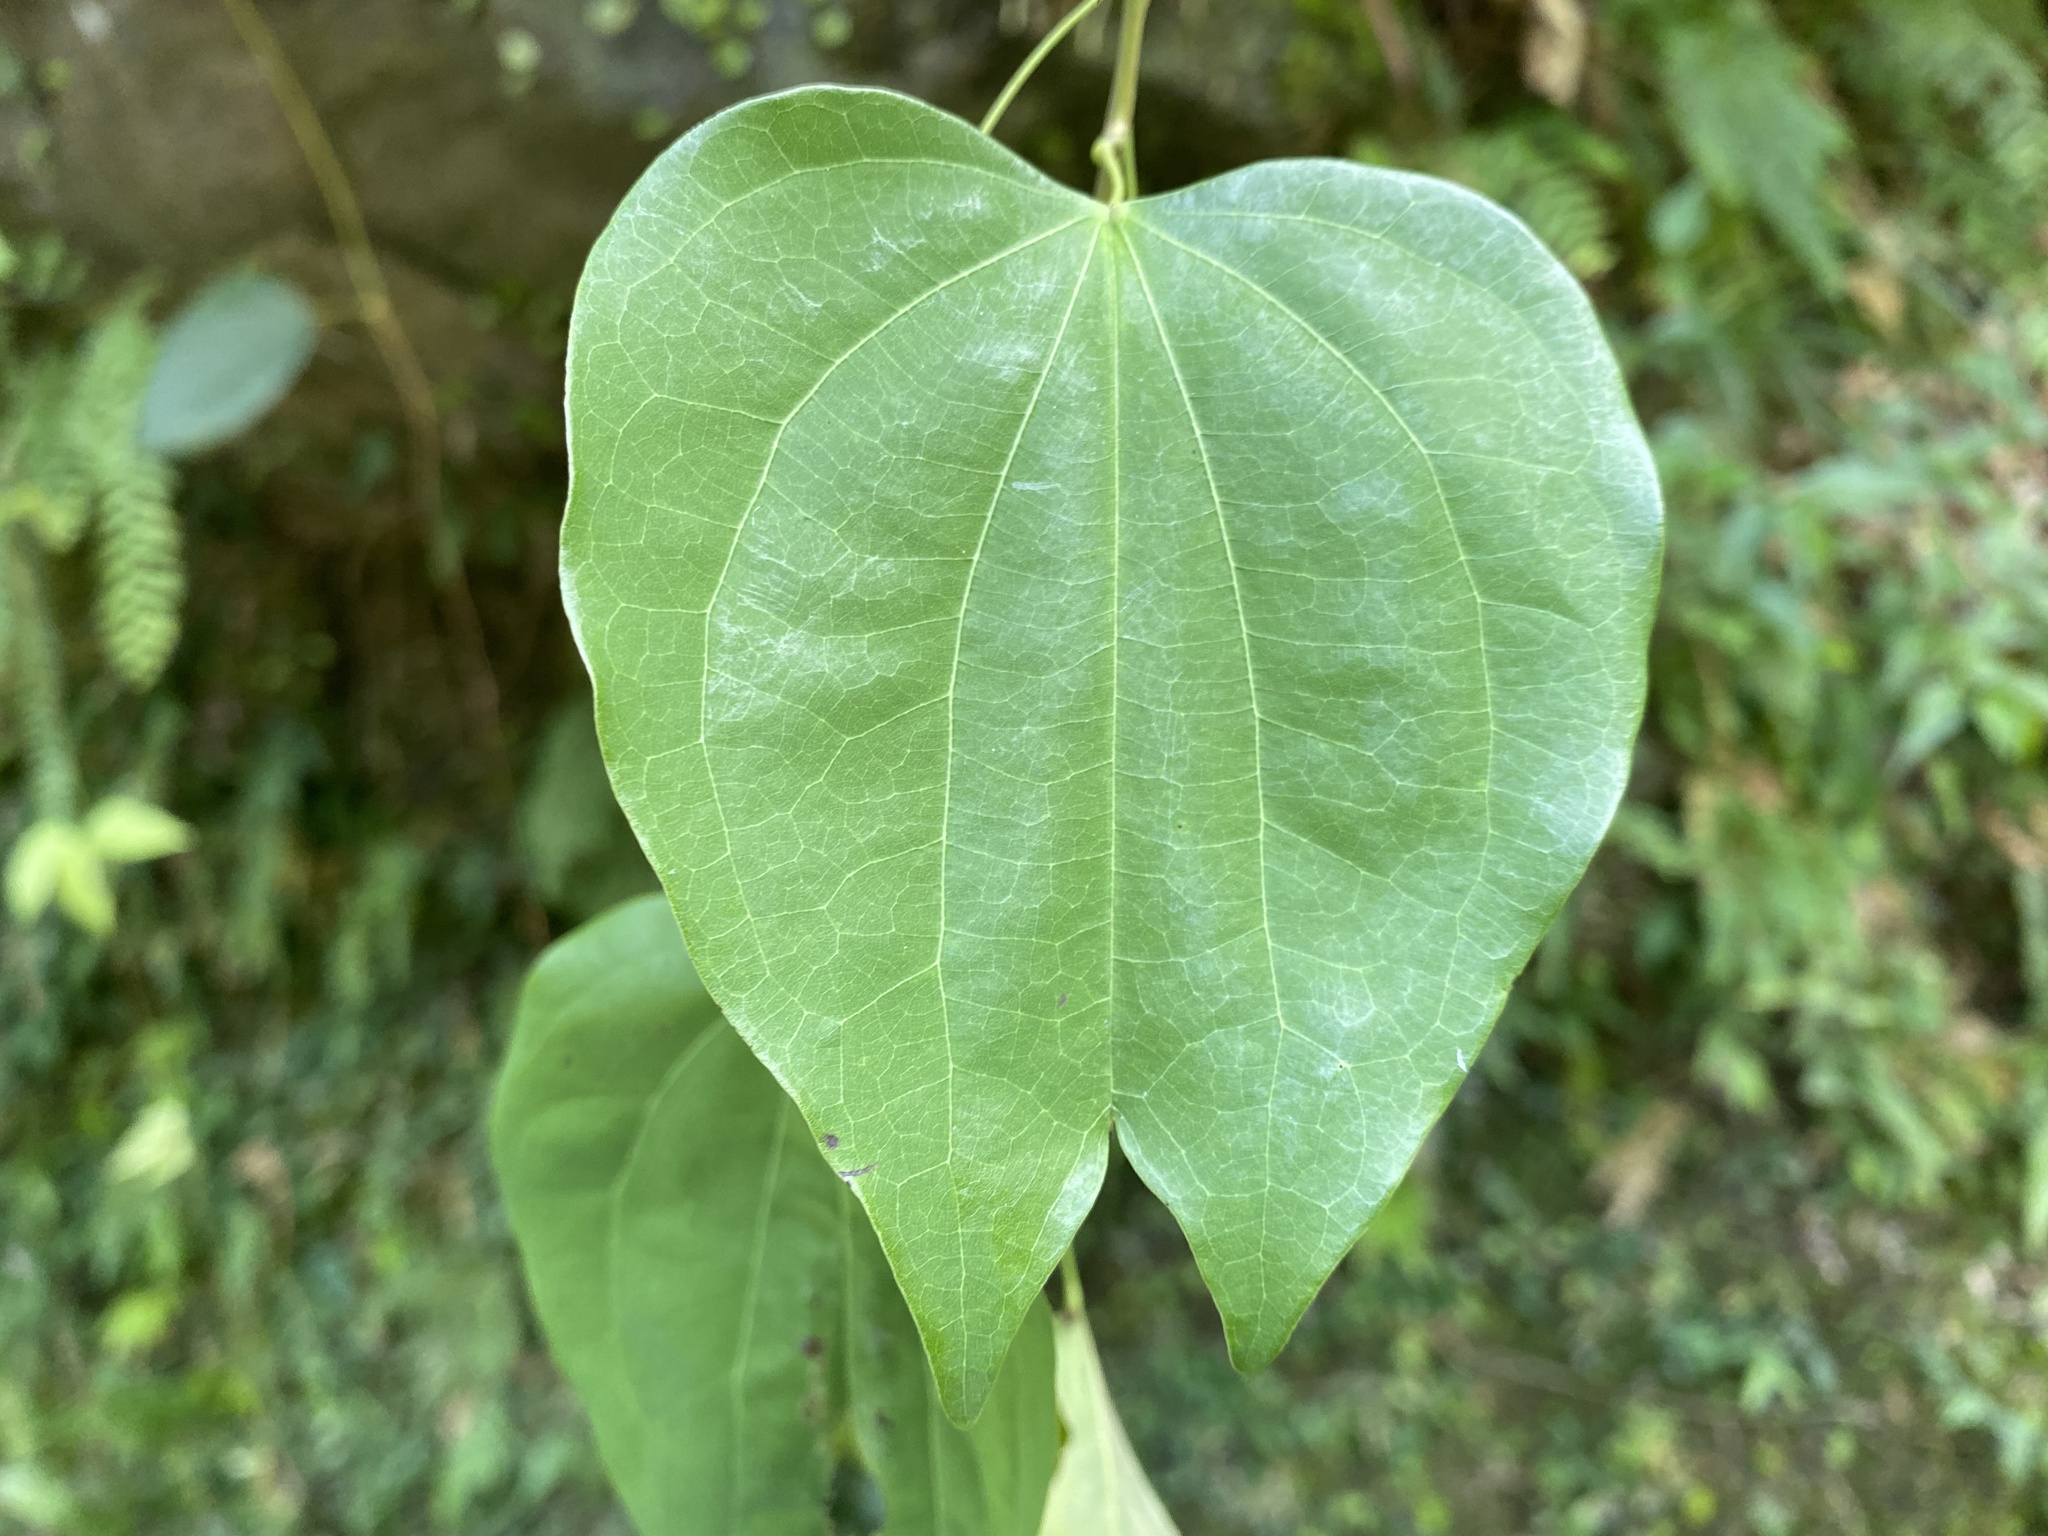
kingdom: Plantae
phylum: Tracheophyta
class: Magnoliopsida
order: Fabales
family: Fabaceae
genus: Phanera
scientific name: Phanera championii
